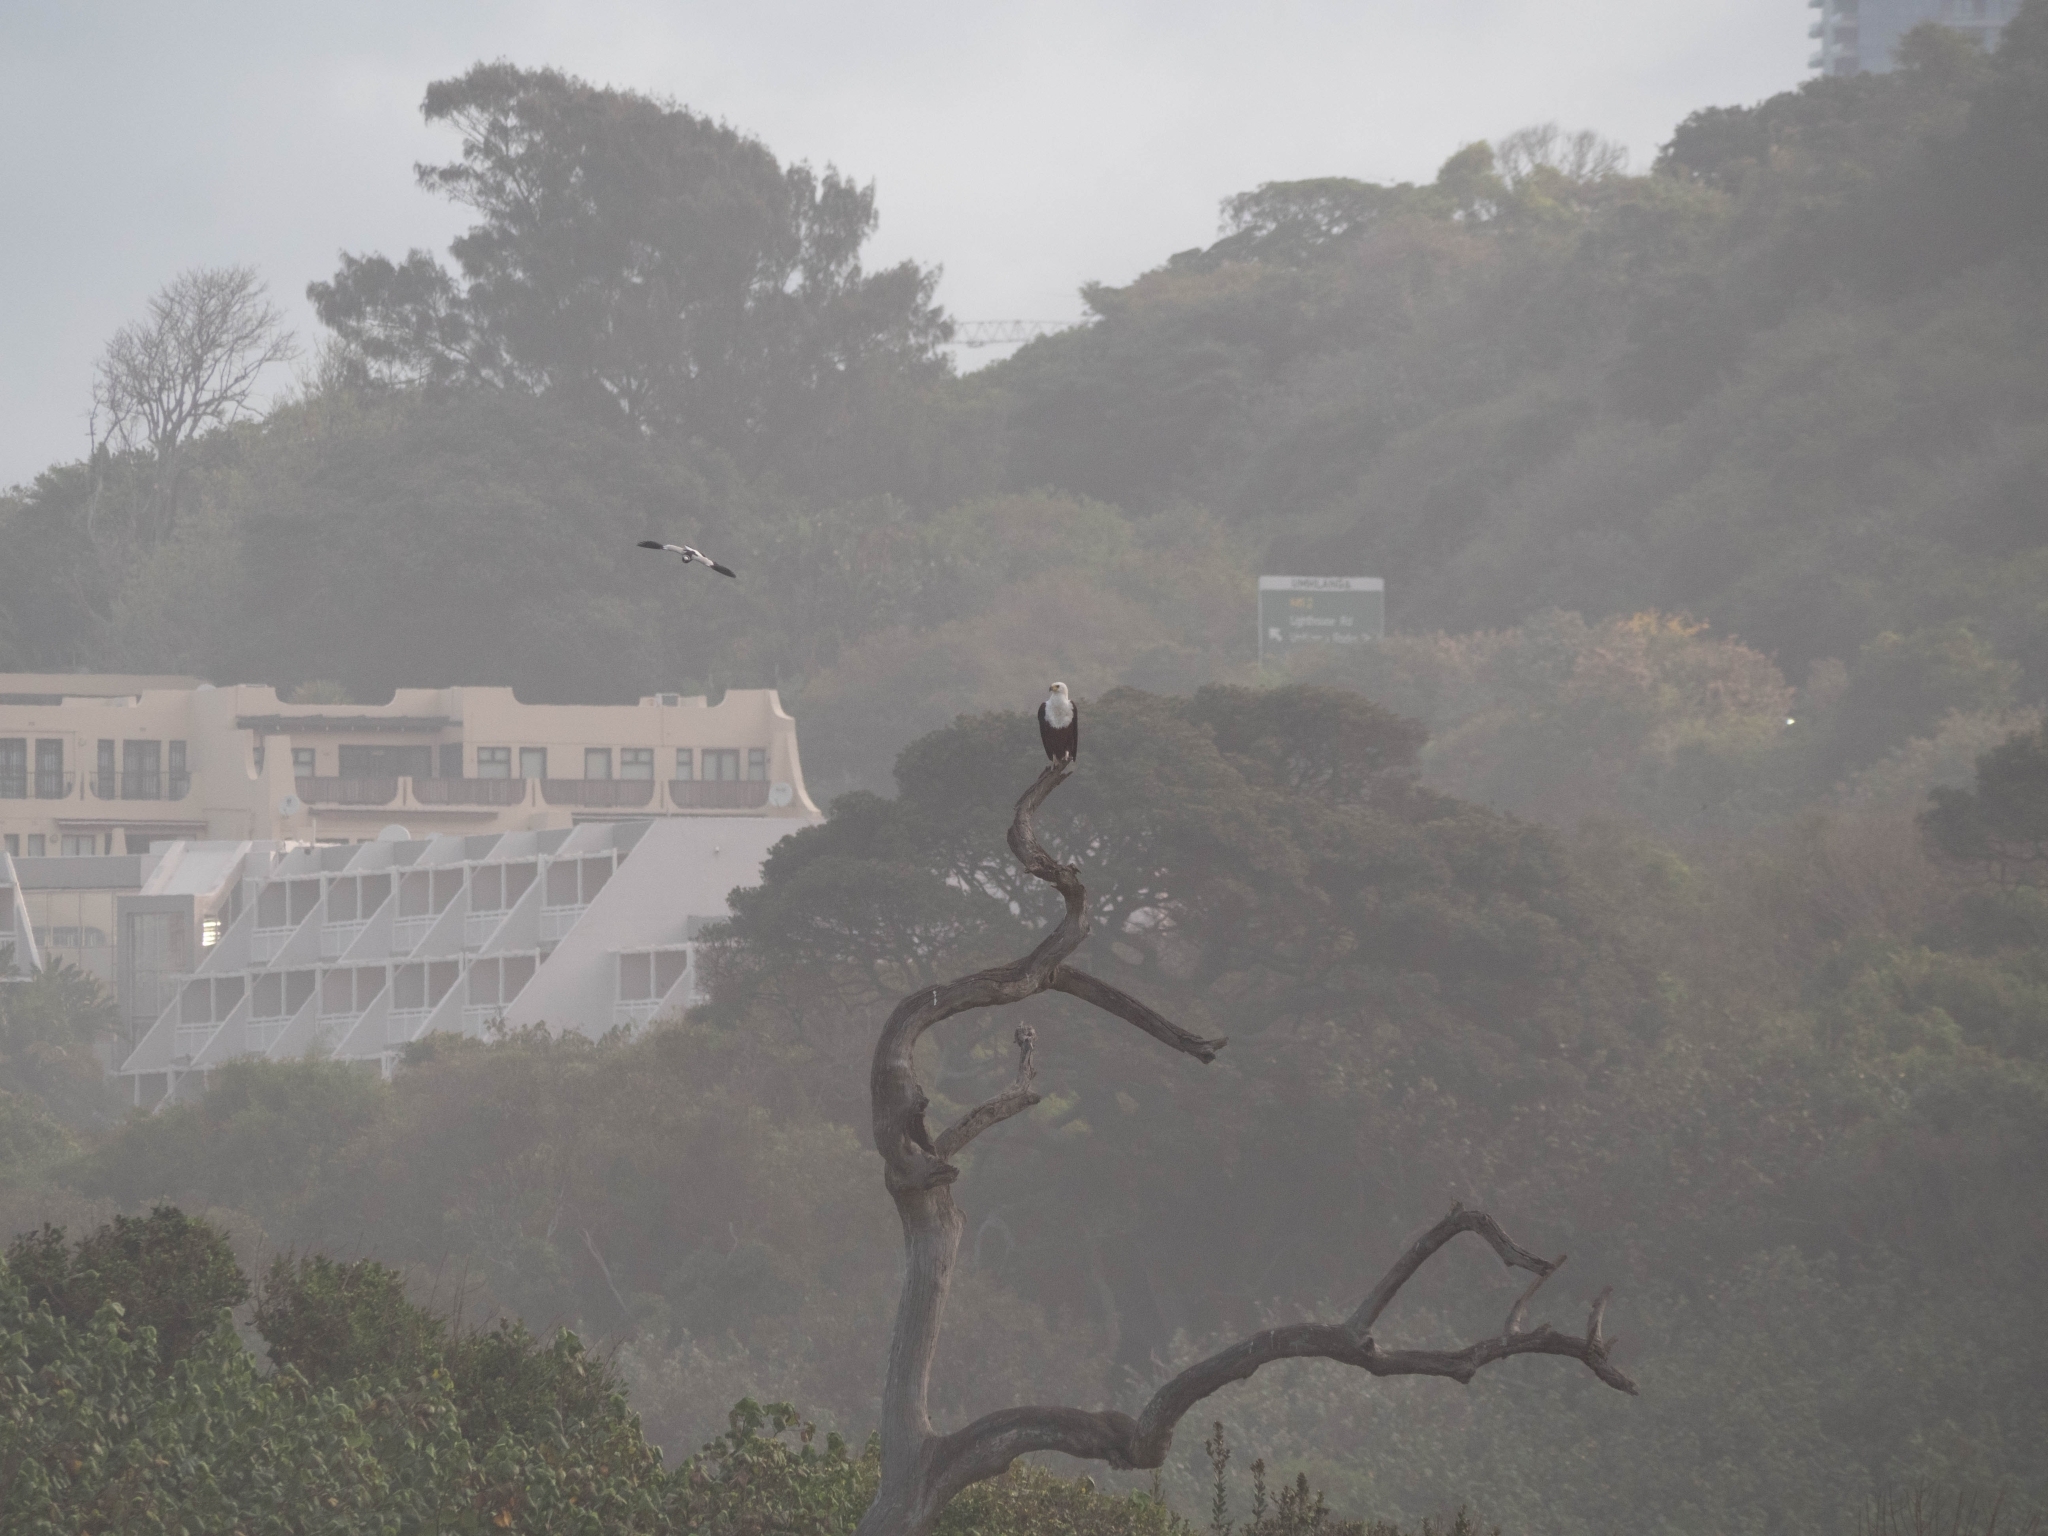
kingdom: Animalia
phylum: Chordata
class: Aves
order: Accipitriformes
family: Accipitridae
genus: Haliaeetus
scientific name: Haliaeetus vocifer
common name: African fish eagle
